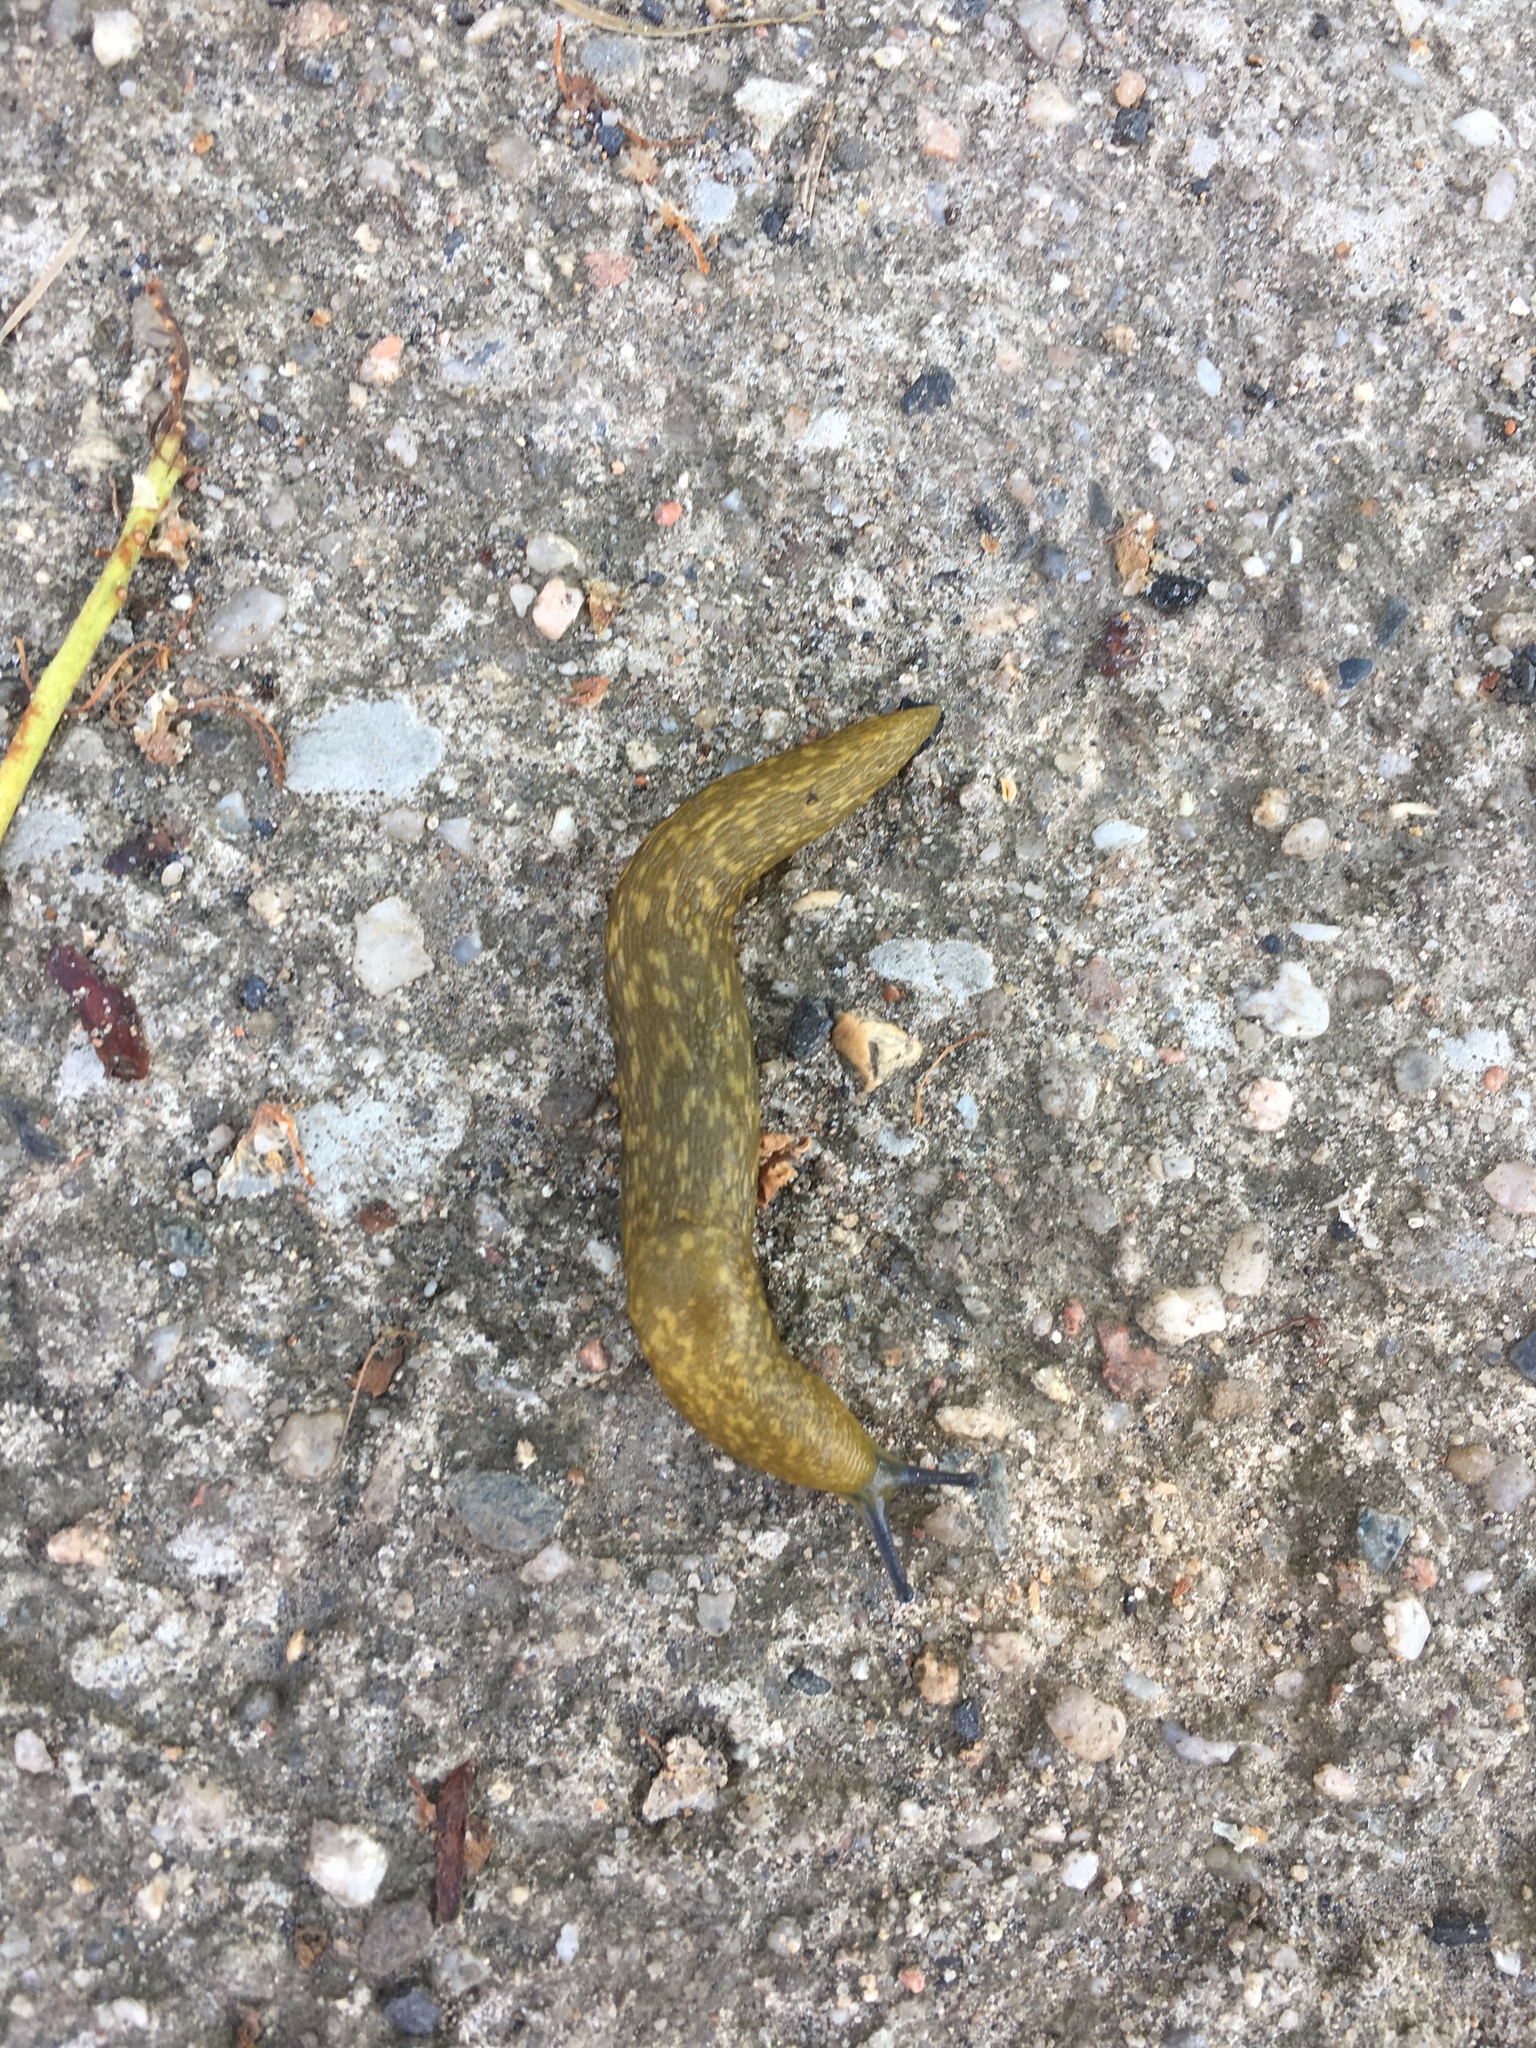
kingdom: Animalia
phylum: Mollusca
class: Gastropoda
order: Stylommatophora
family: Limacidae
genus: Limacus
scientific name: Limacus flavus
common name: Yellow gardenslug
